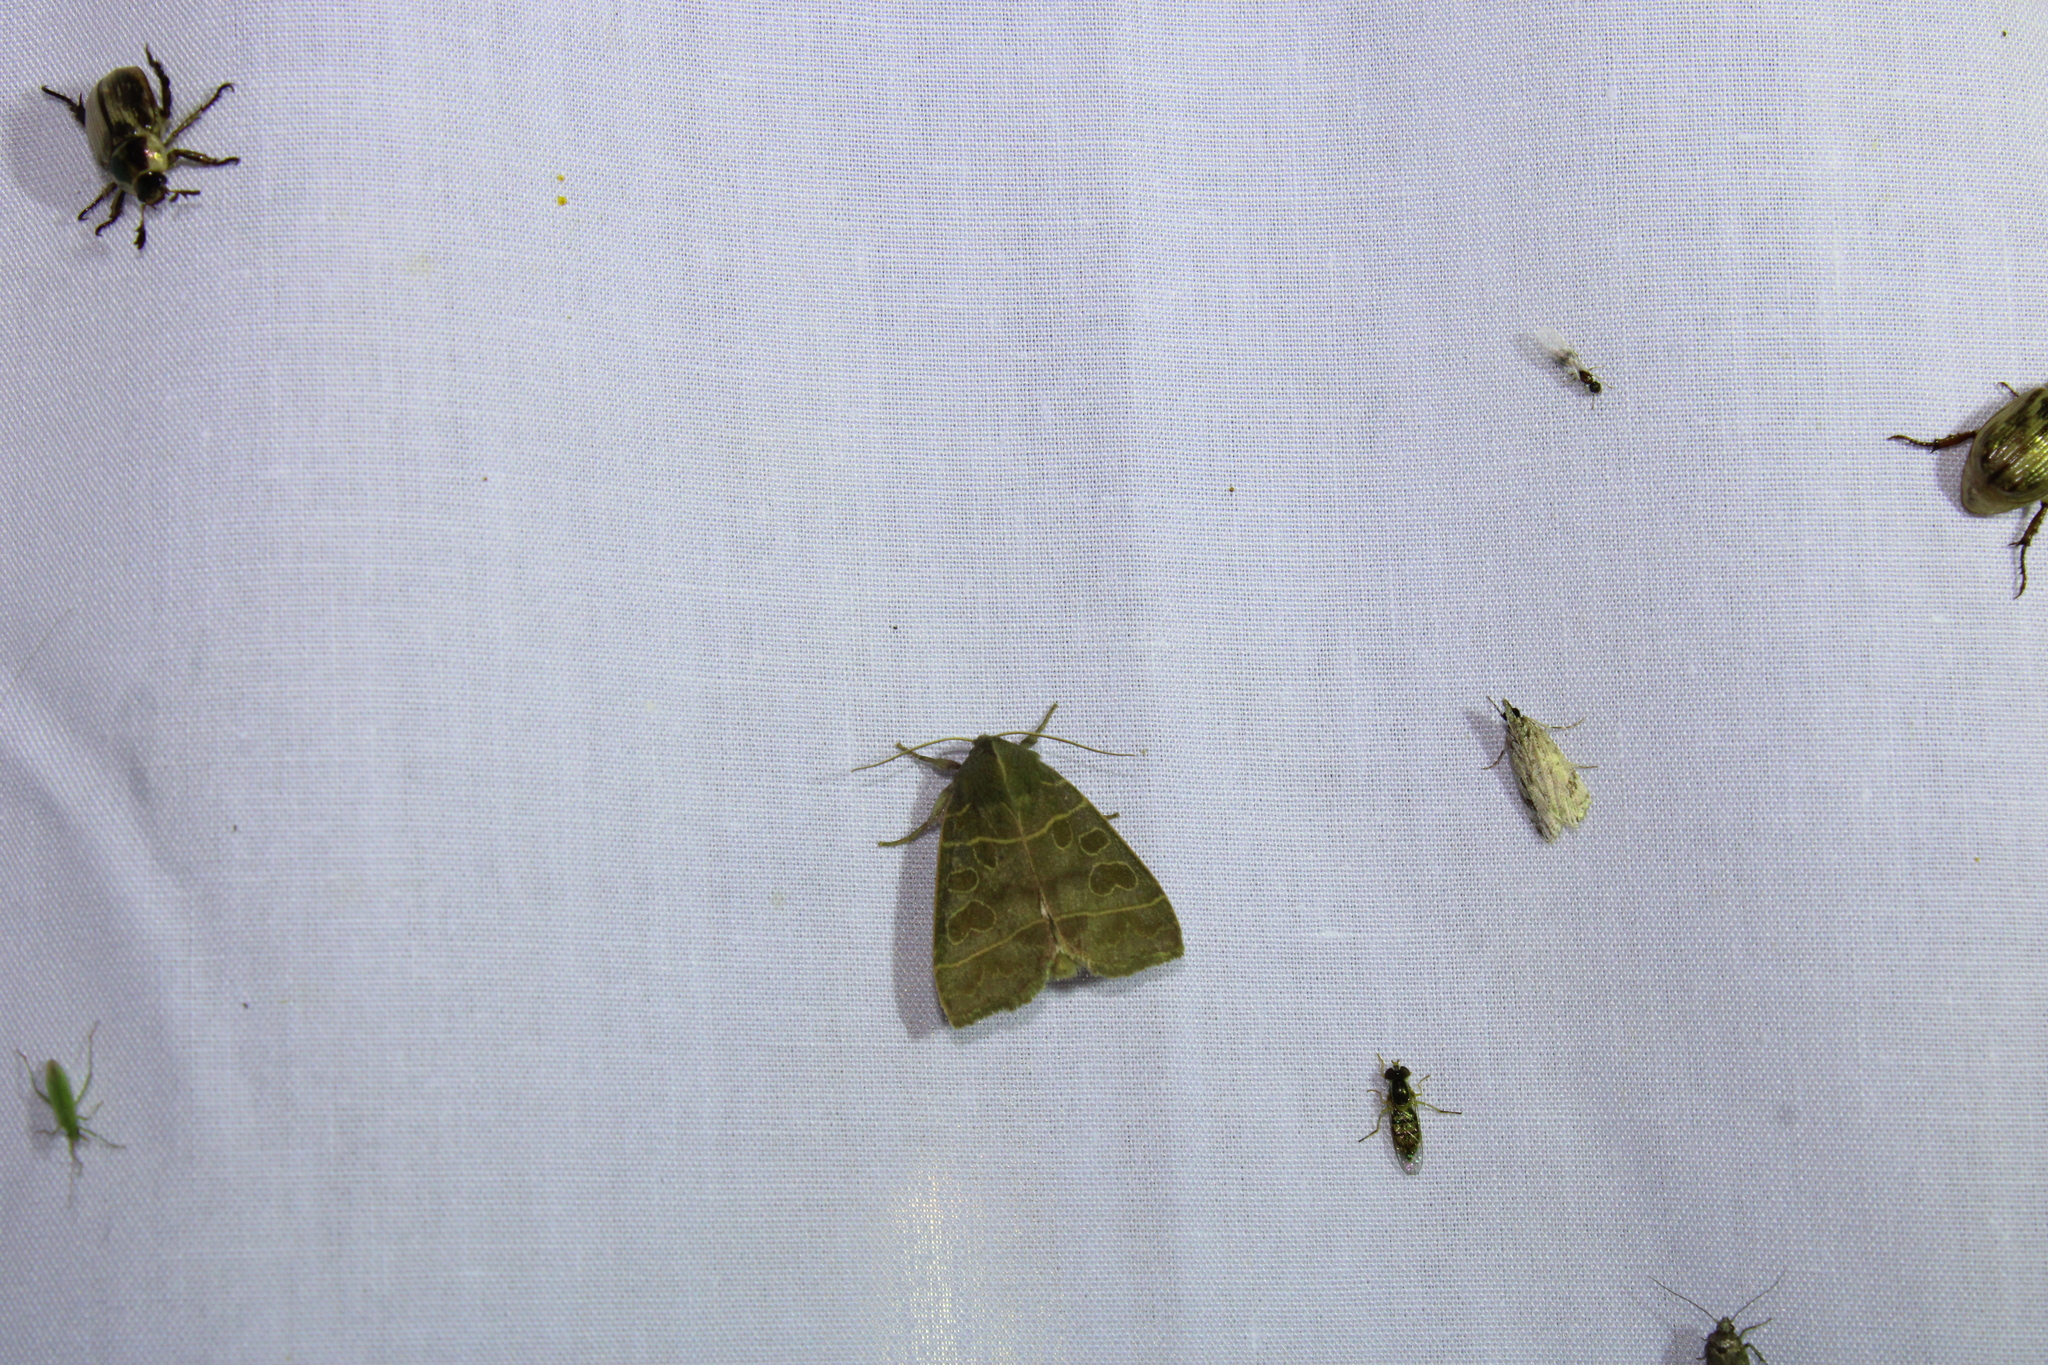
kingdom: Animalia
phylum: Arthropoda
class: Insecta
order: Lepidoptera
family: Noctuidae
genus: Ipimorpha
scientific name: Ipimorpha pleonectusa
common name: Even-lined sallow
